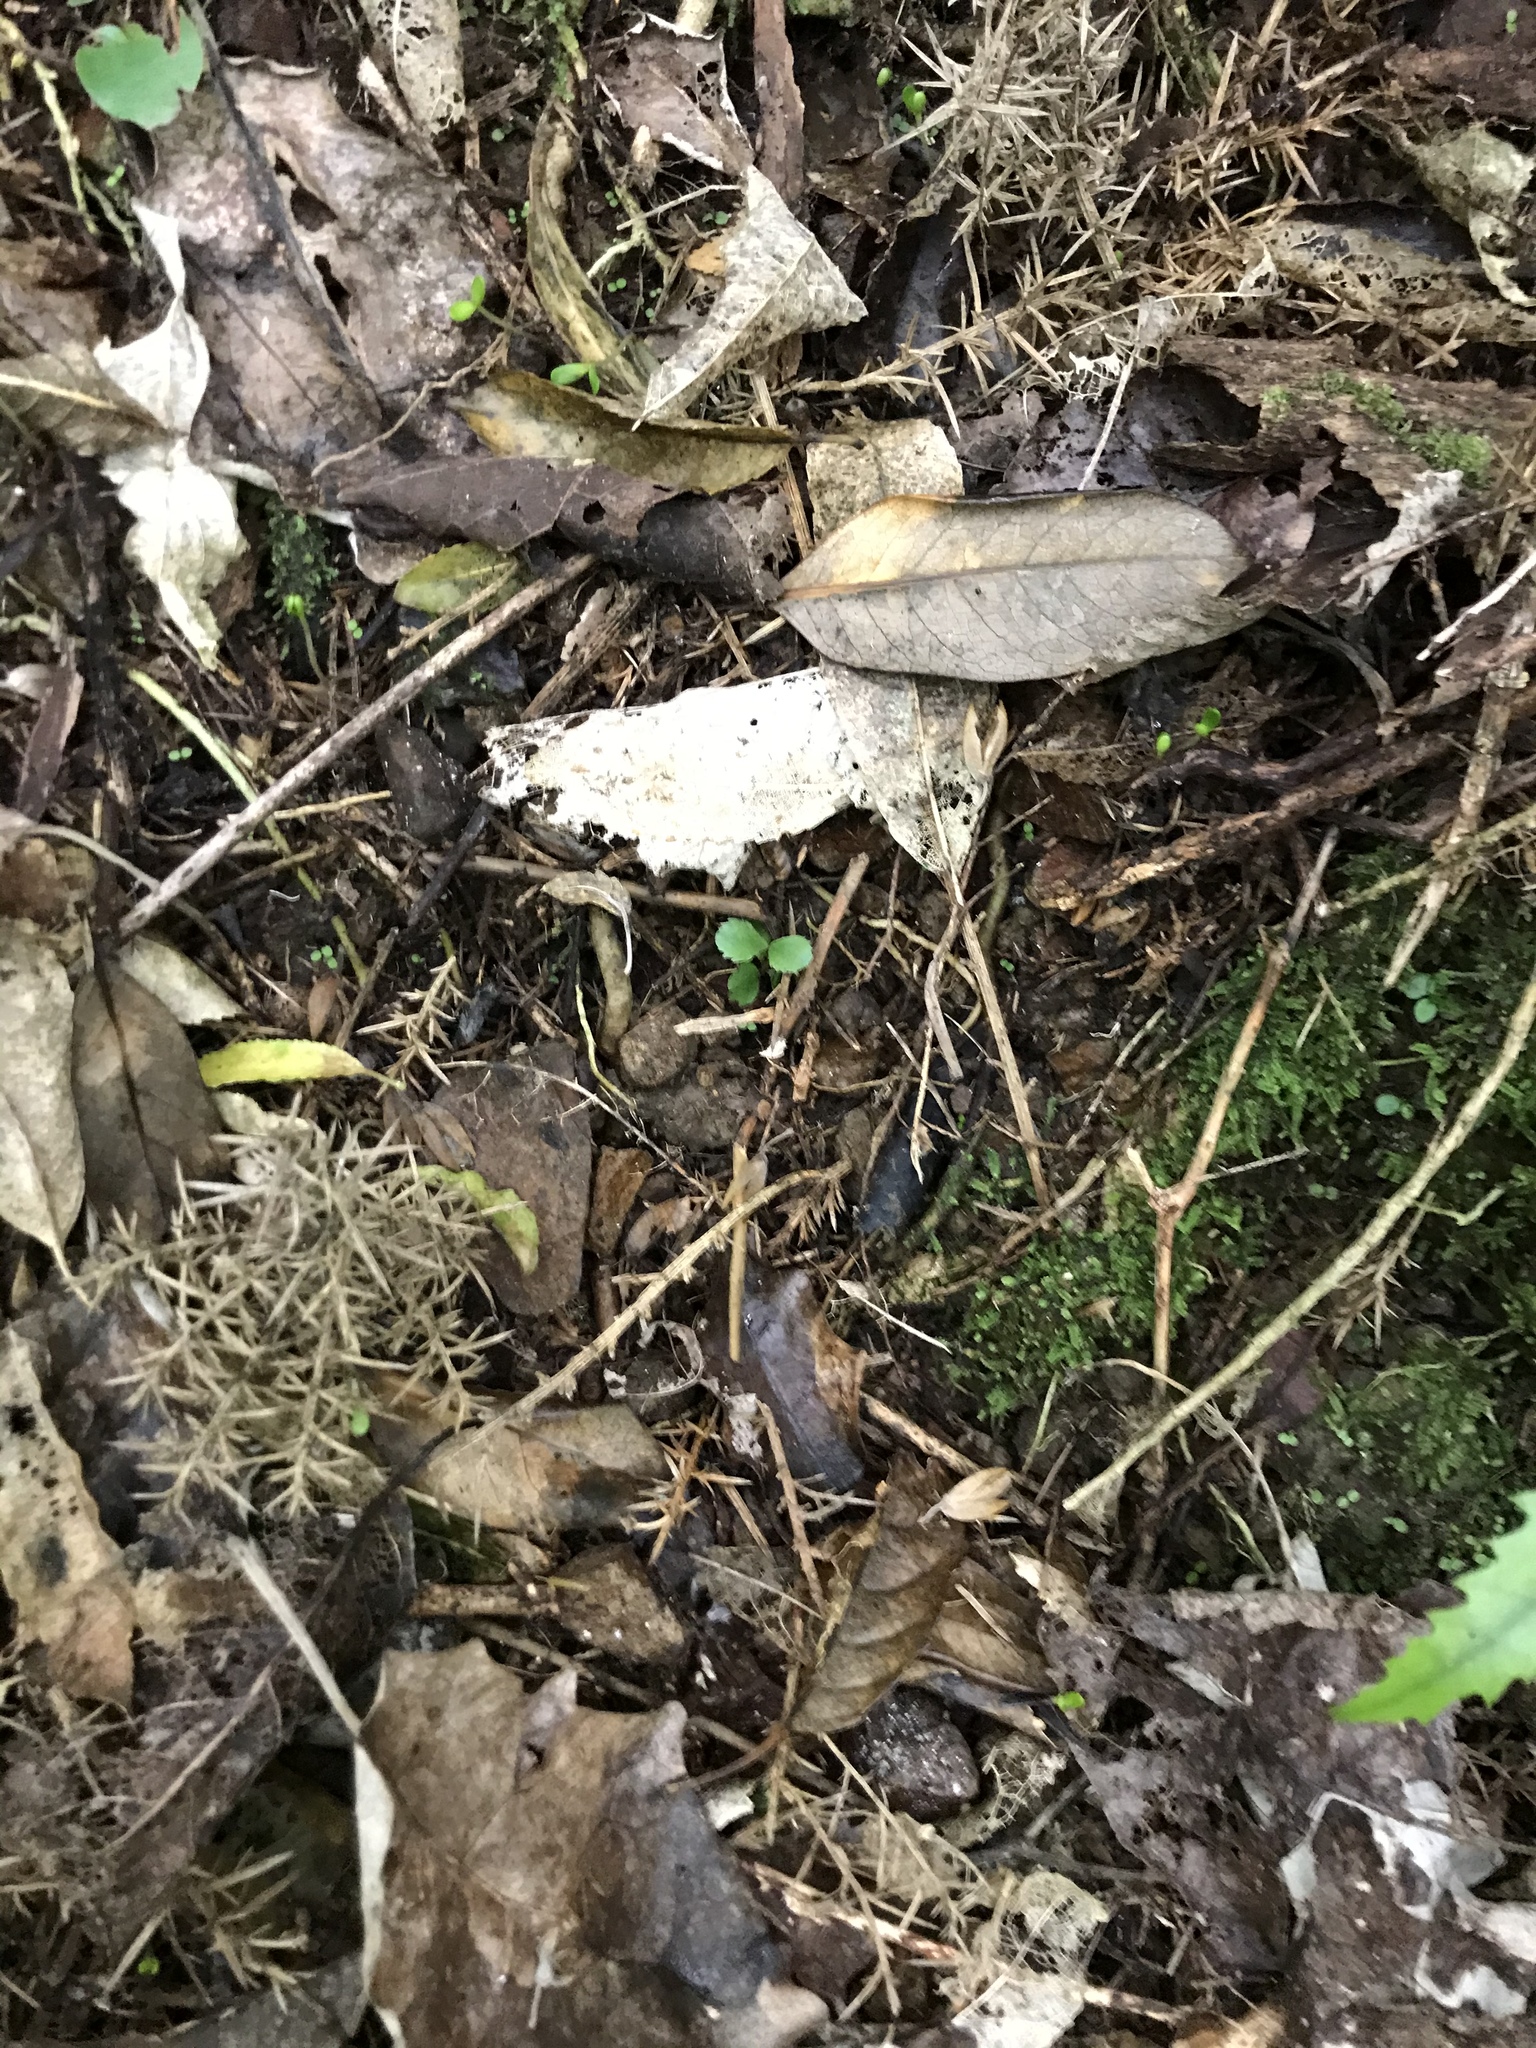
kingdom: Plantae
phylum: Tracheophyta
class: Magnoliopsida
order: Laurales
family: Atherospermataceae
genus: Laurelia
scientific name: Laurelia novae-zelandiae
